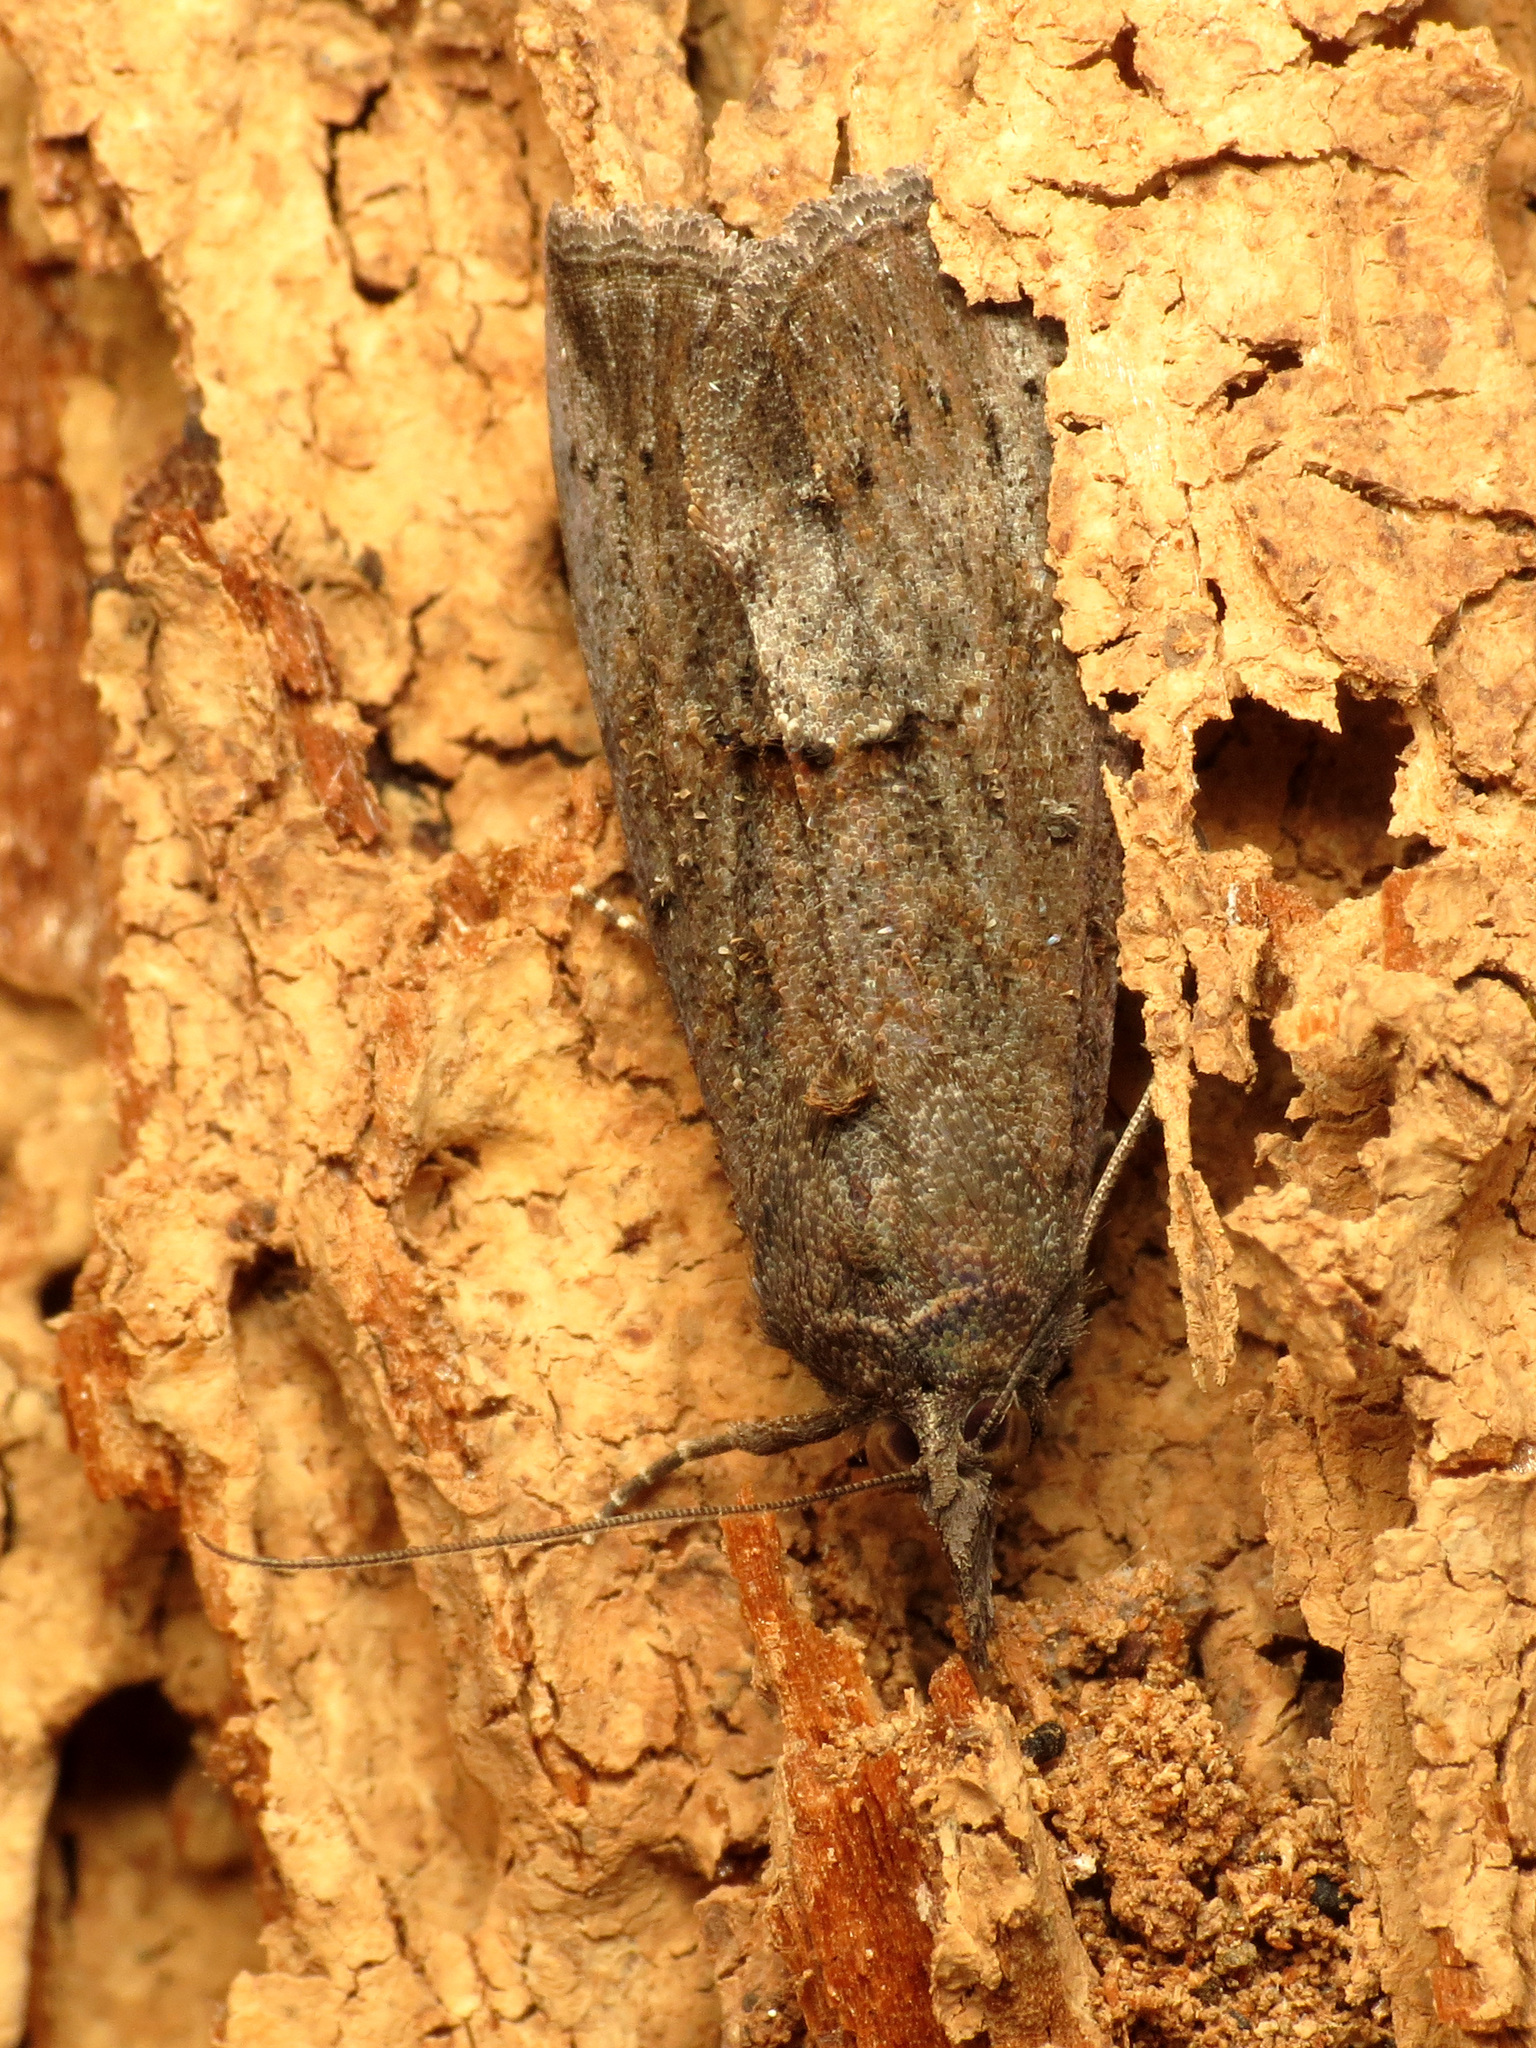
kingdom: Animalia
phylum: Arthropoda
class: Insecta
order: Lepidoptera
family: Erebidae
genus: Hypena
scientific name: Hypena scabra
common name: Green cloverworm
